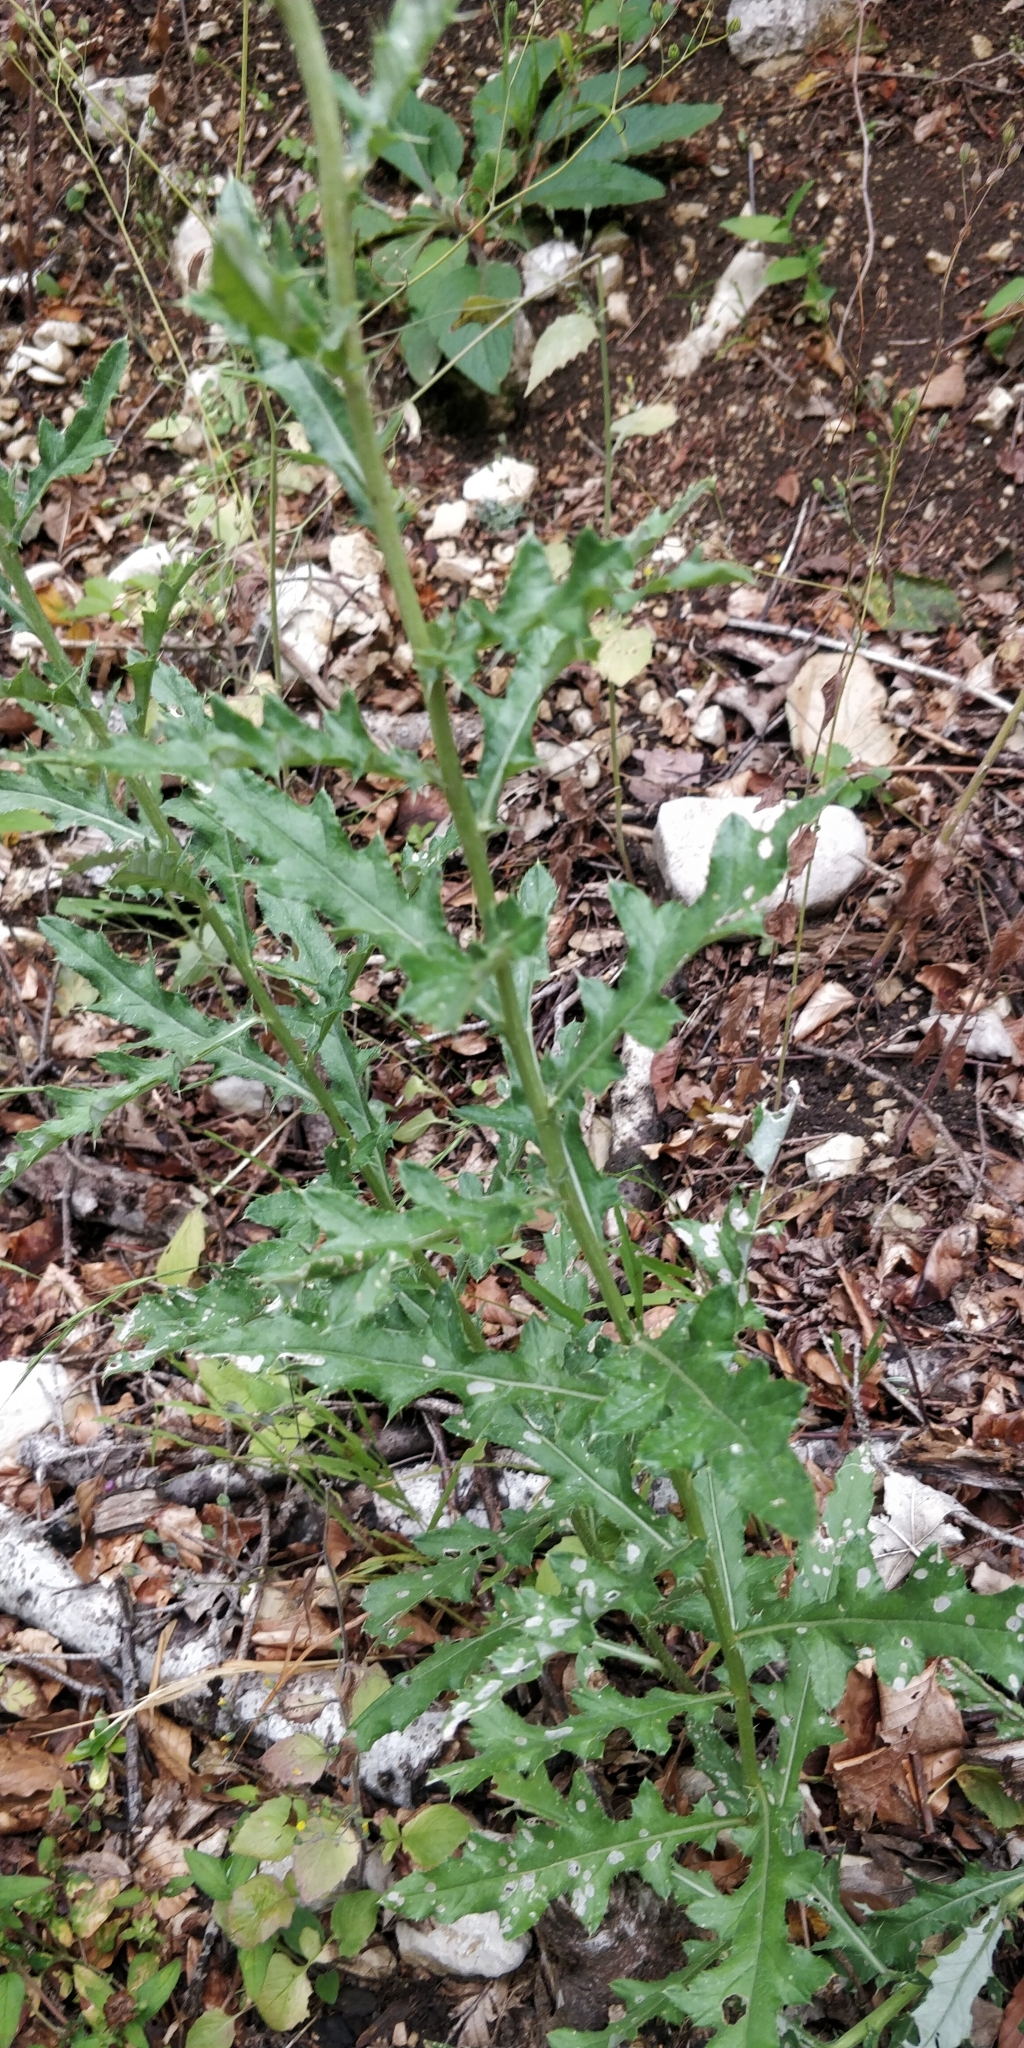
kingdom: Plantae
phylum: Tracheophyta
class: Magnoliopsida
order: Asterales
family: Asteraceae
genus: Cirsium
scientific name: Cirsium arvense
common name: Creeping thistle
